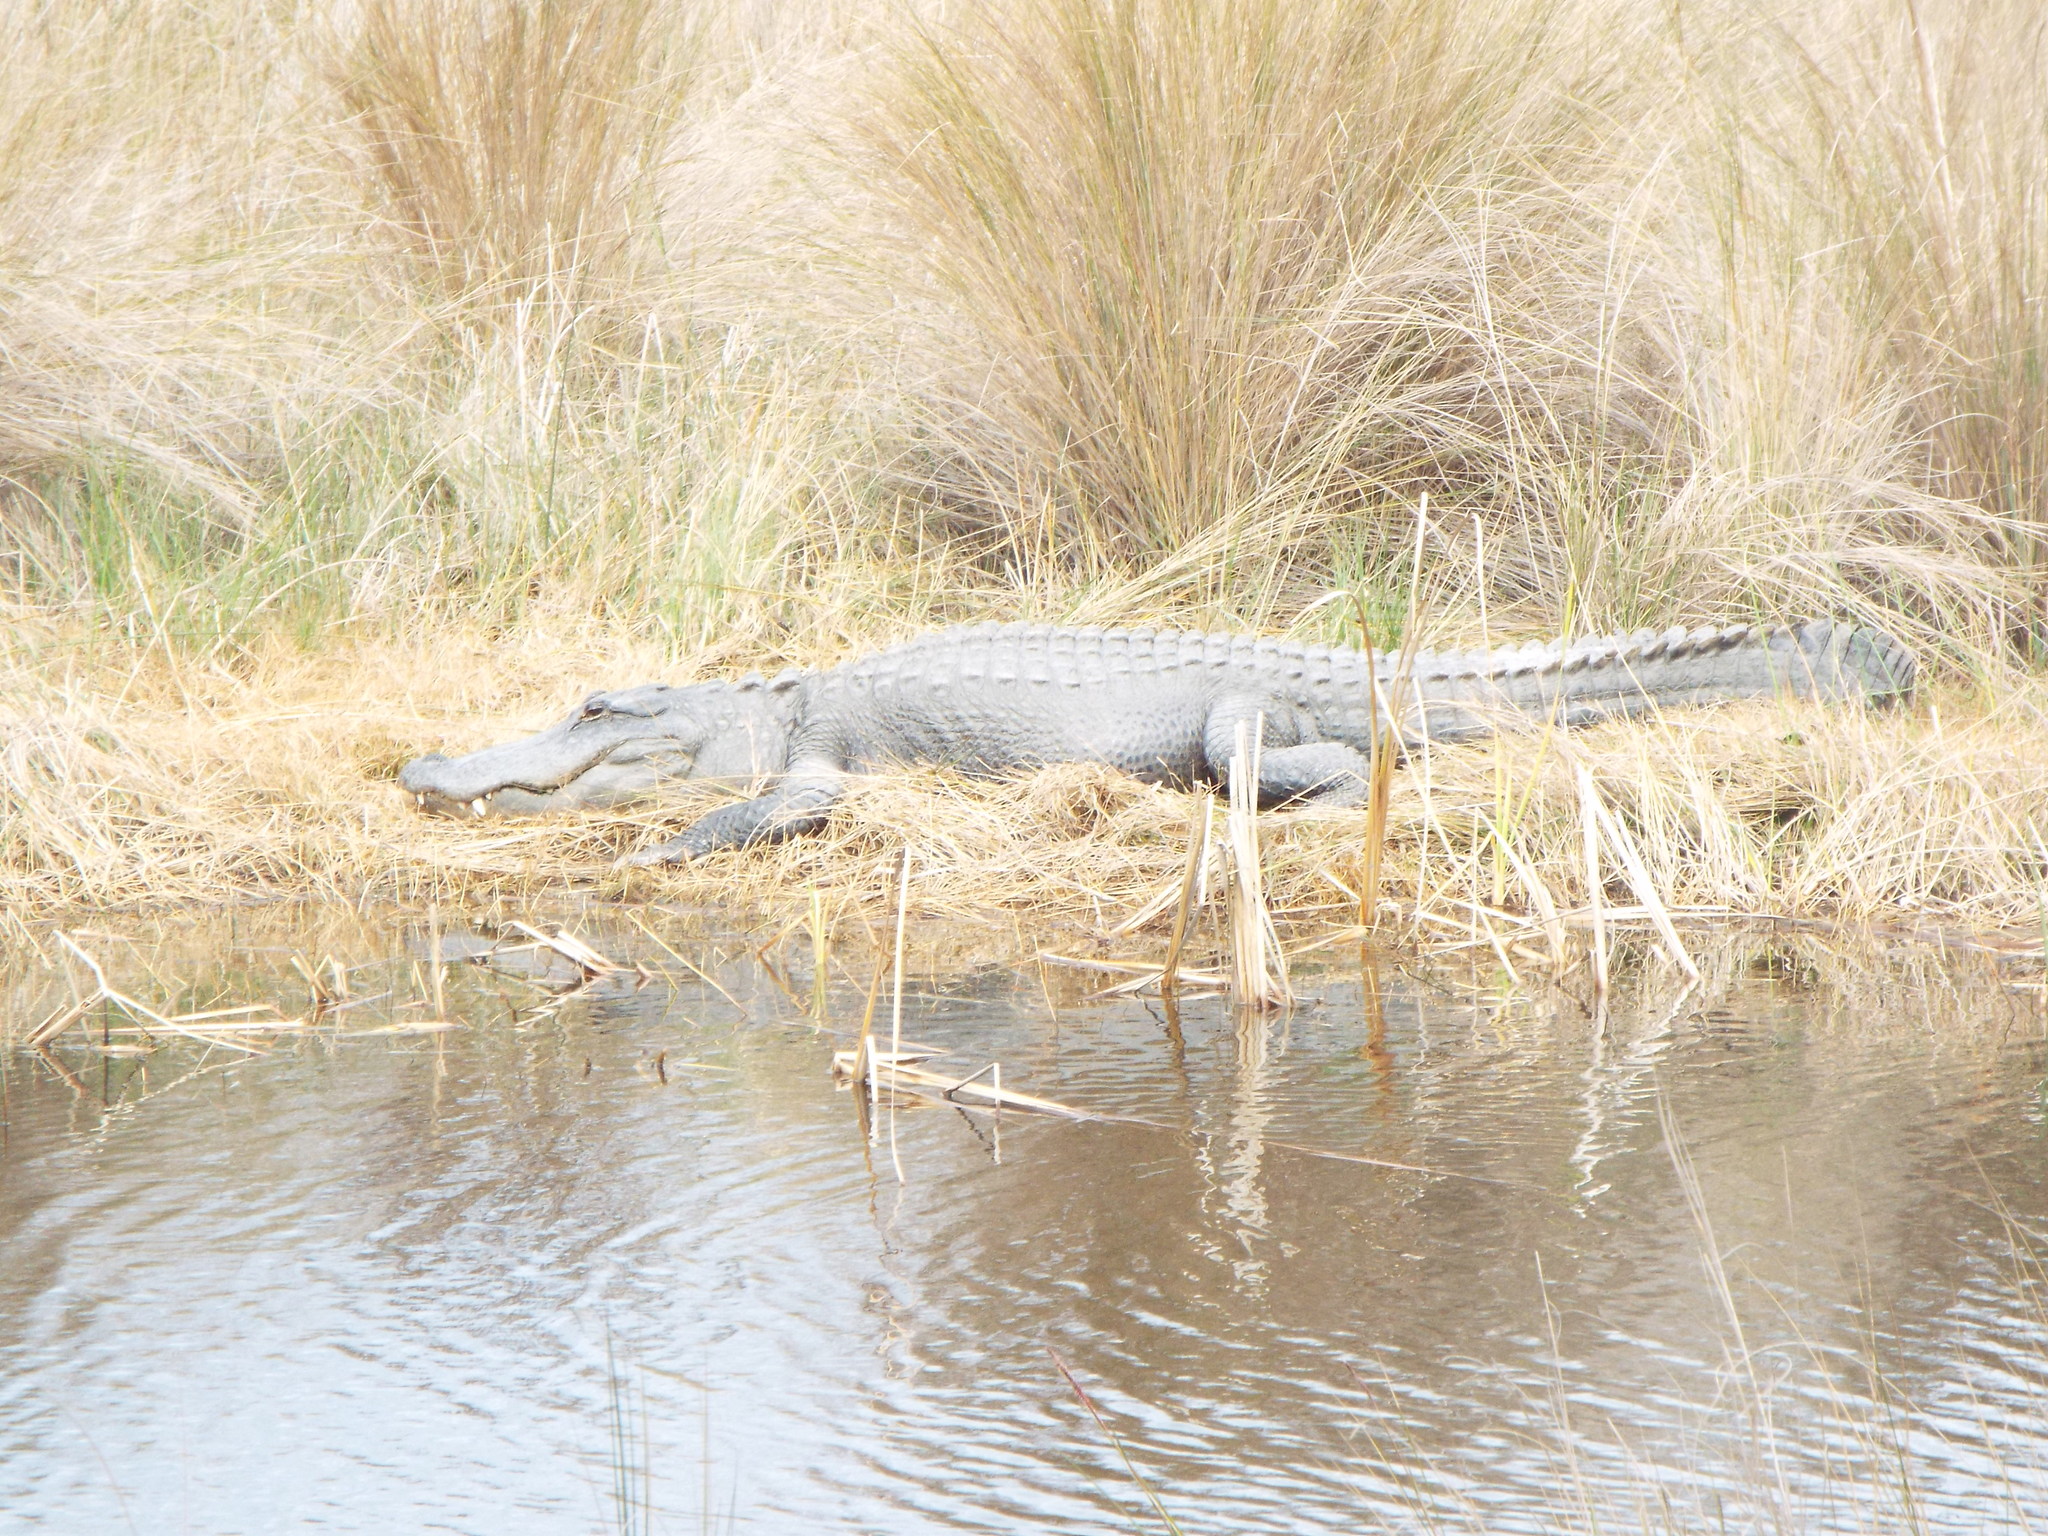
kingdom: Animalia
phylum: Chordata
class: Crocodylia
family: Alligatoridae
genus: Alligator
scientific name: Alligator mississippiensis
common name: American alligator
